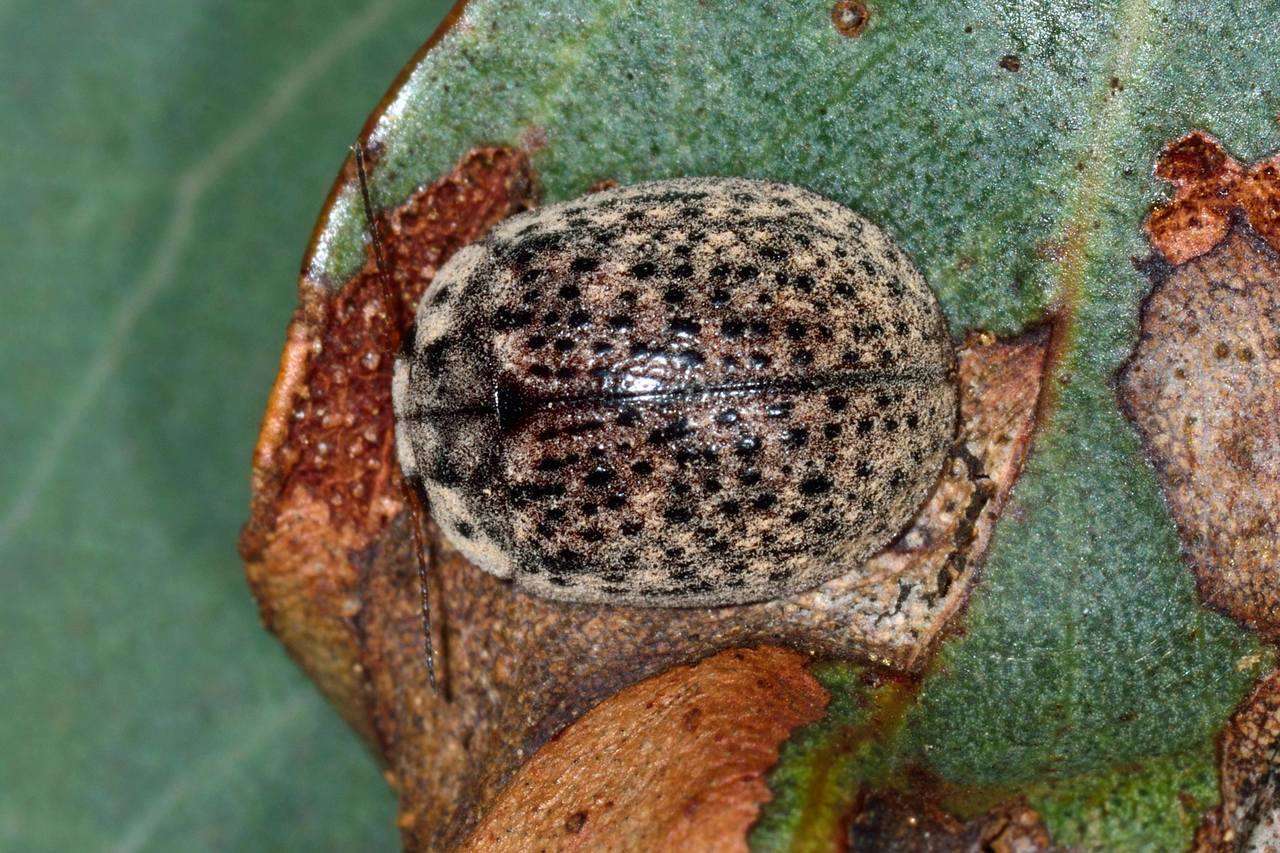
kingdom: Animalia
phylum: Arthropoda
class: Insecta
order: Coleoptera
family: Chrysomelidae
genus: Trachymela
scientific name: Trachymela sloanei
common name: Australian tortoise beetle
